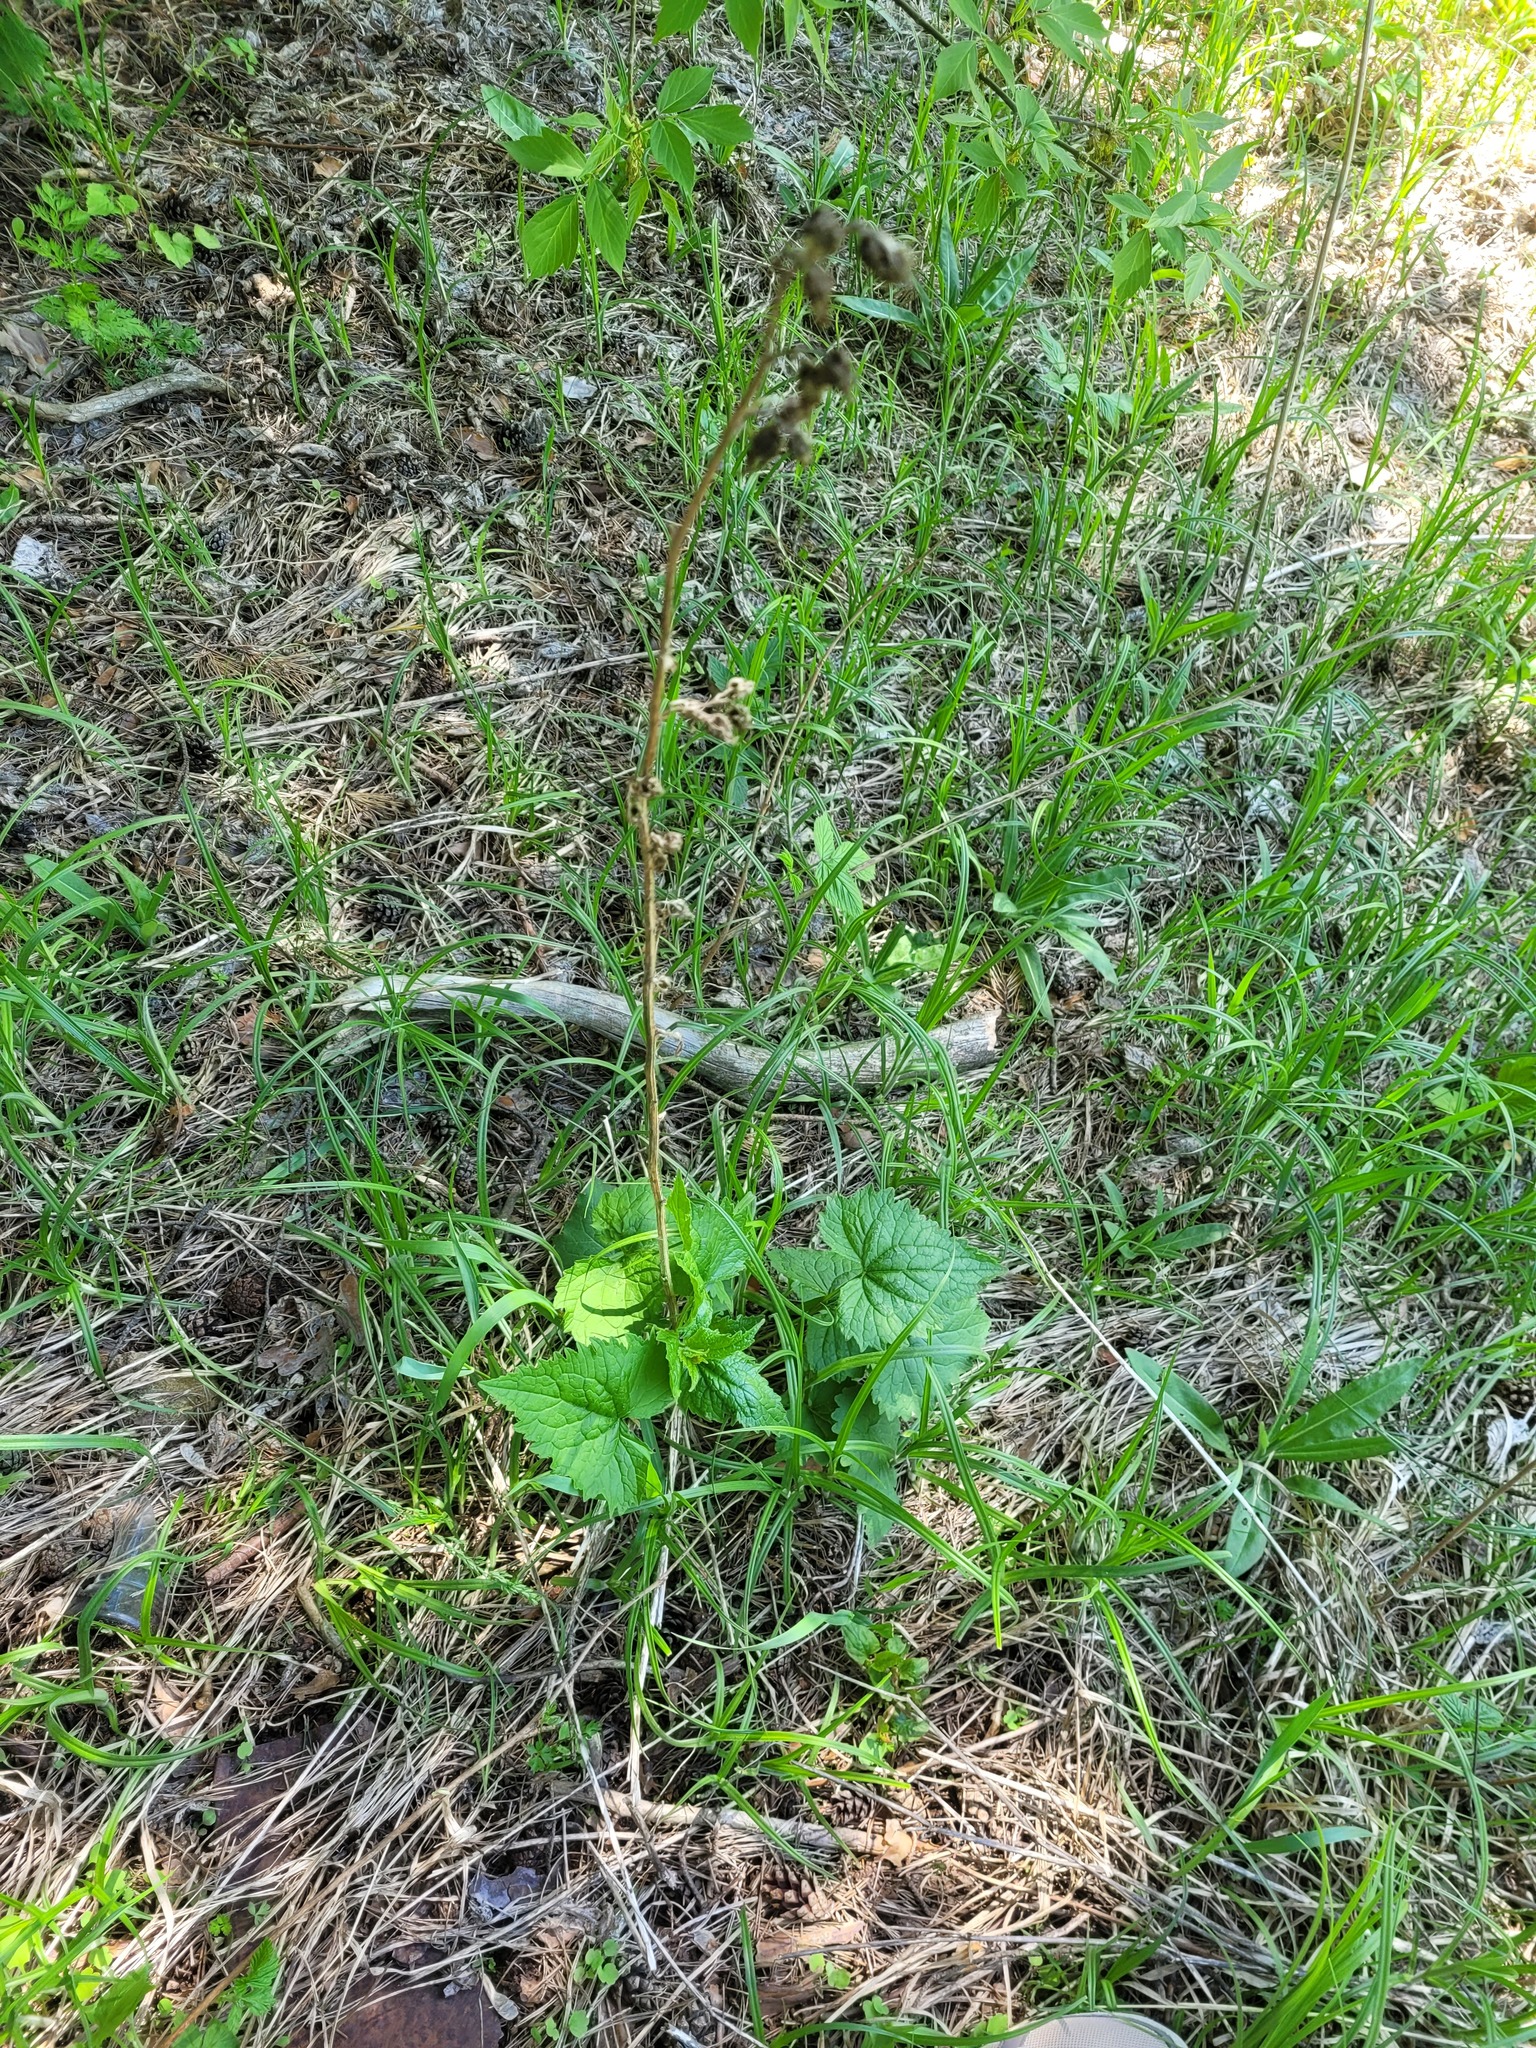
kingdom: Plantae
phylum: Tracheophyta
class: Magnoliopsida
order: Asterales
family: Campanulaceae
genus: Campanula
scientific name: Campanula trachelium
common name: Nettle-leaved bellflower
